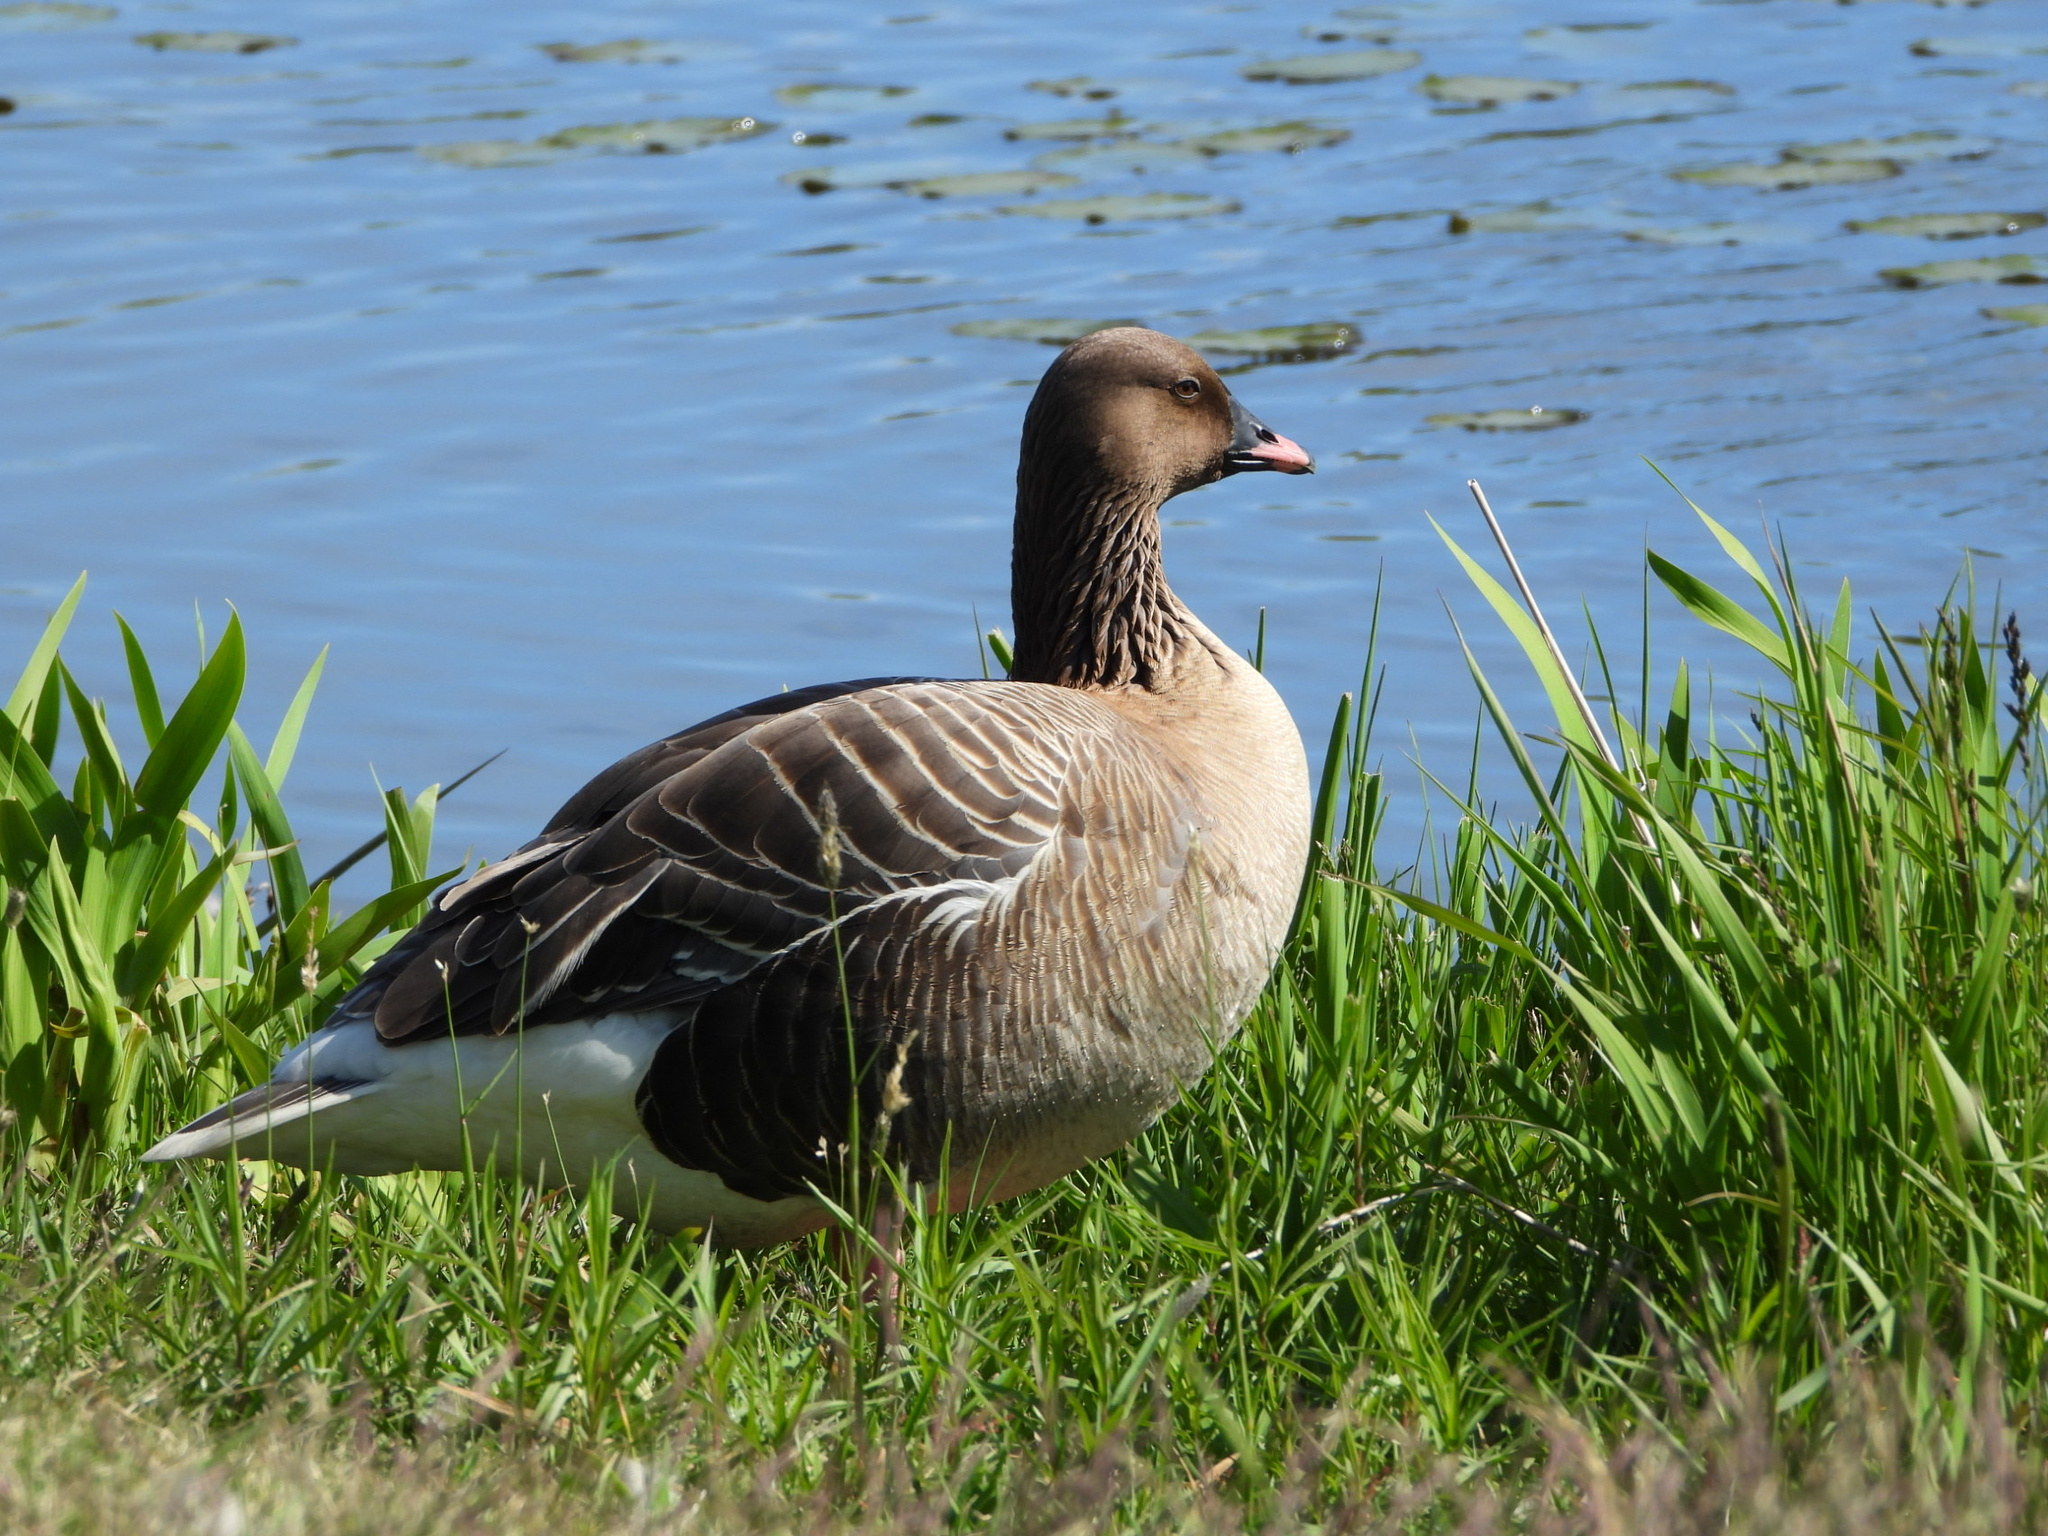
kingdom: Animalia
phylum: Chordata
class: Aves
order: Anseriformes
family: Anatidae
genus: Anser
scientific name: Anser brachyrhynchus
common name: Pink-footed goose
